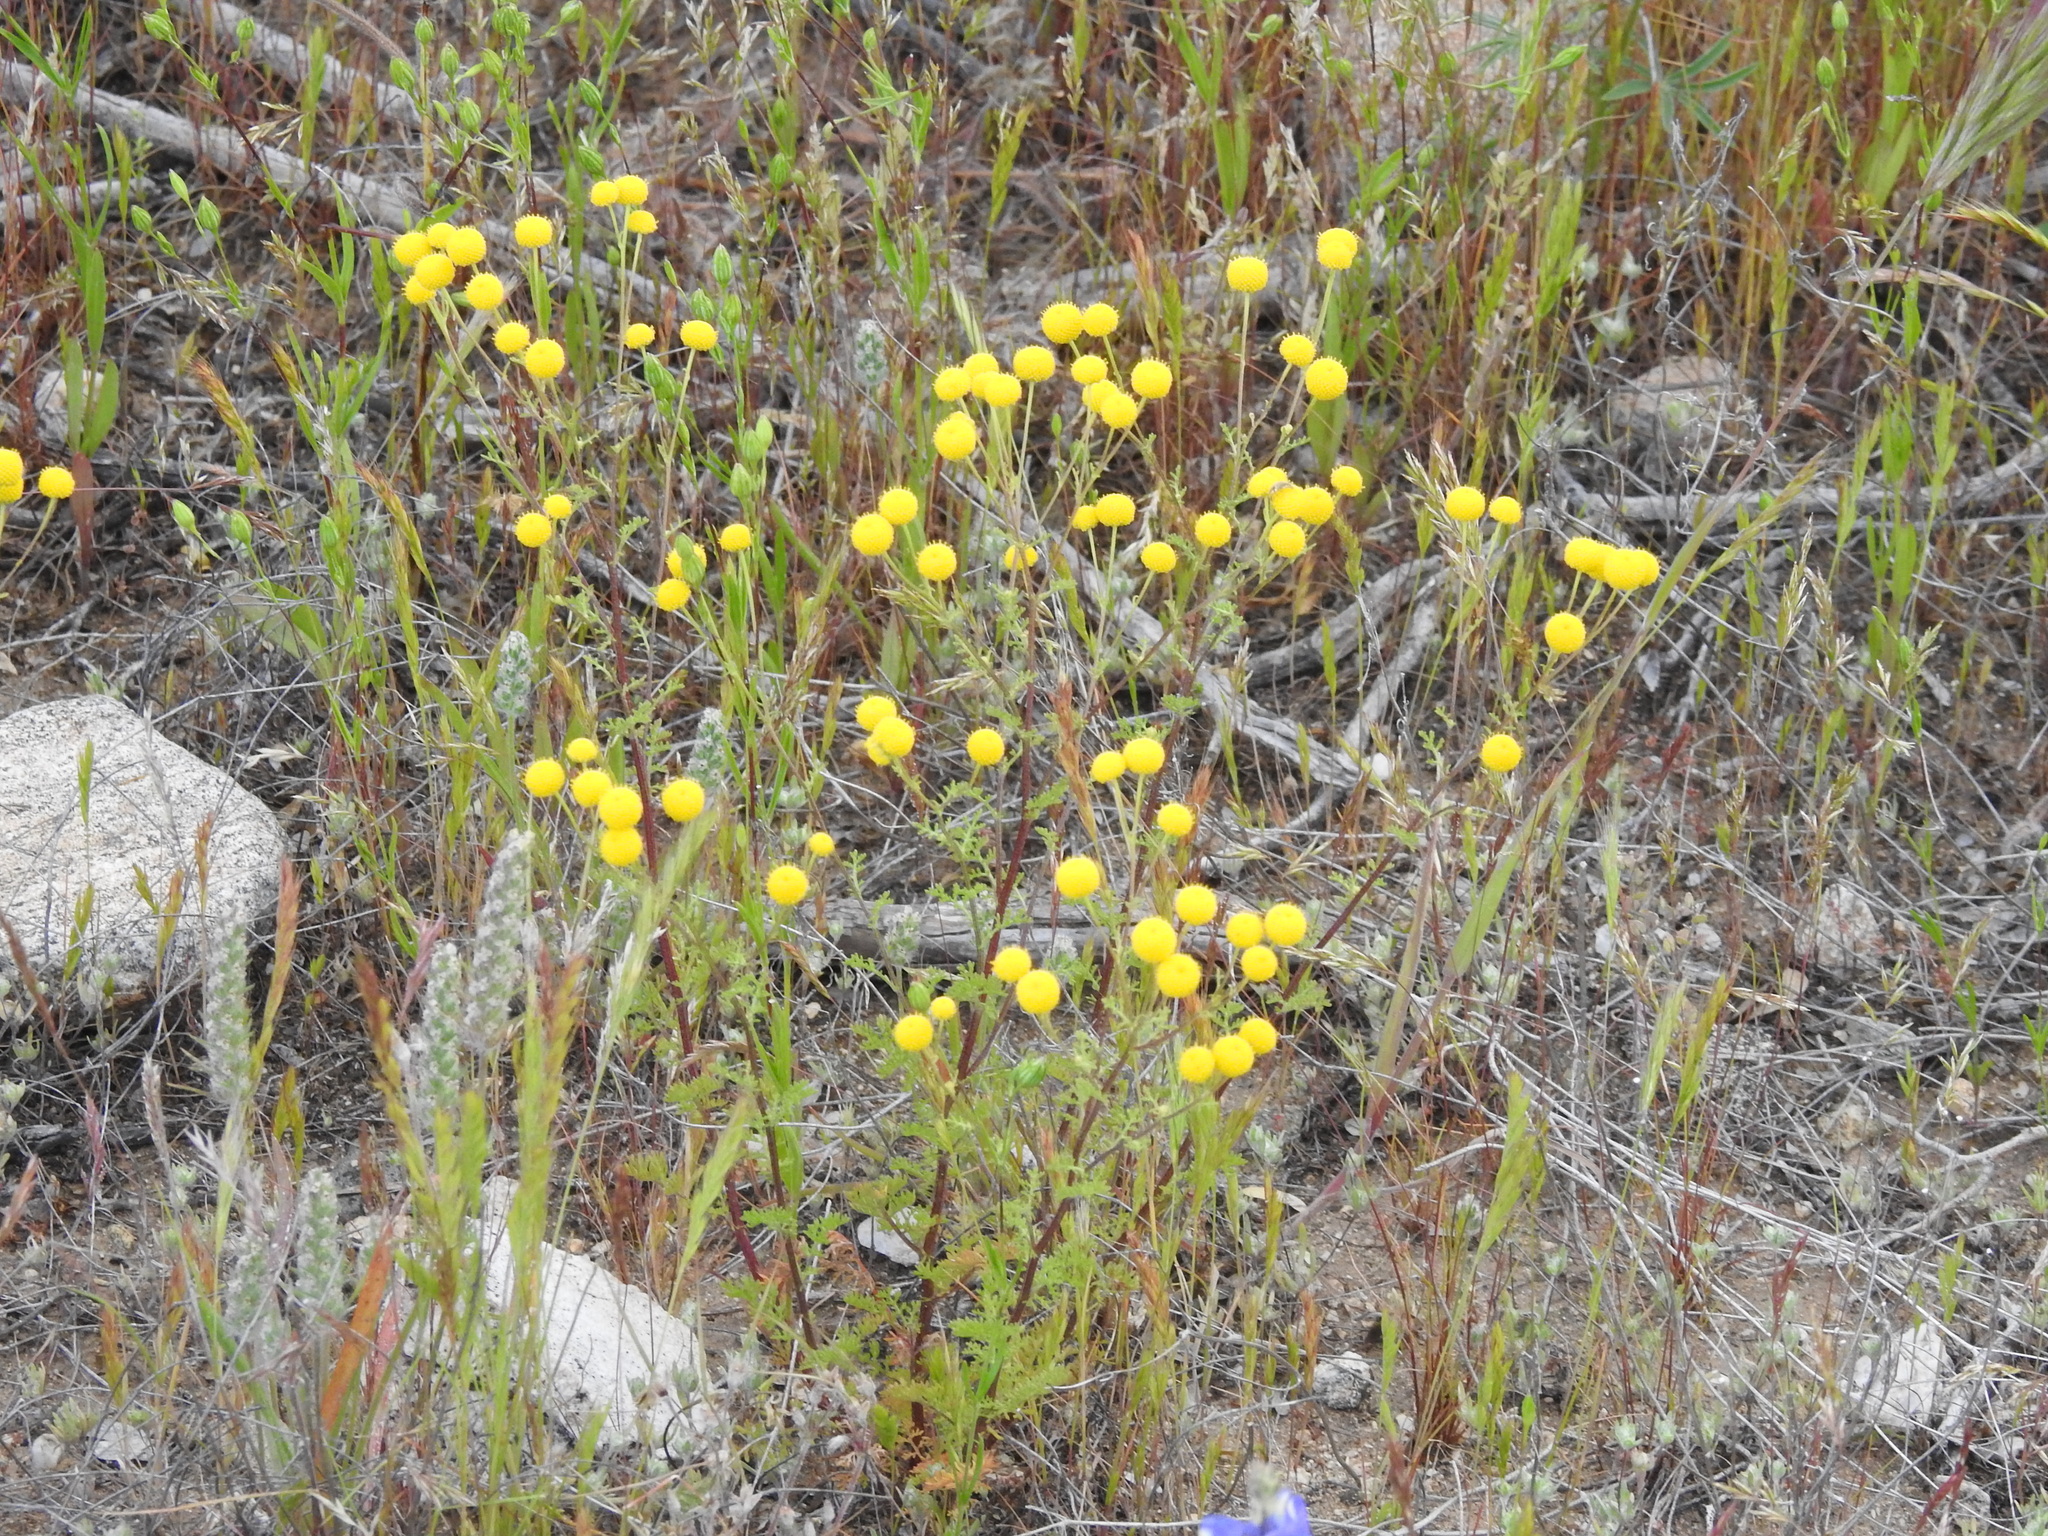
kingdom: Plantae
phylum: Tracheophyta
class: Magnoliopsida
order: Asterales
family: Asteraceae
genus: Oncosiphon
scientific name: Oncosiphon pilulifer
